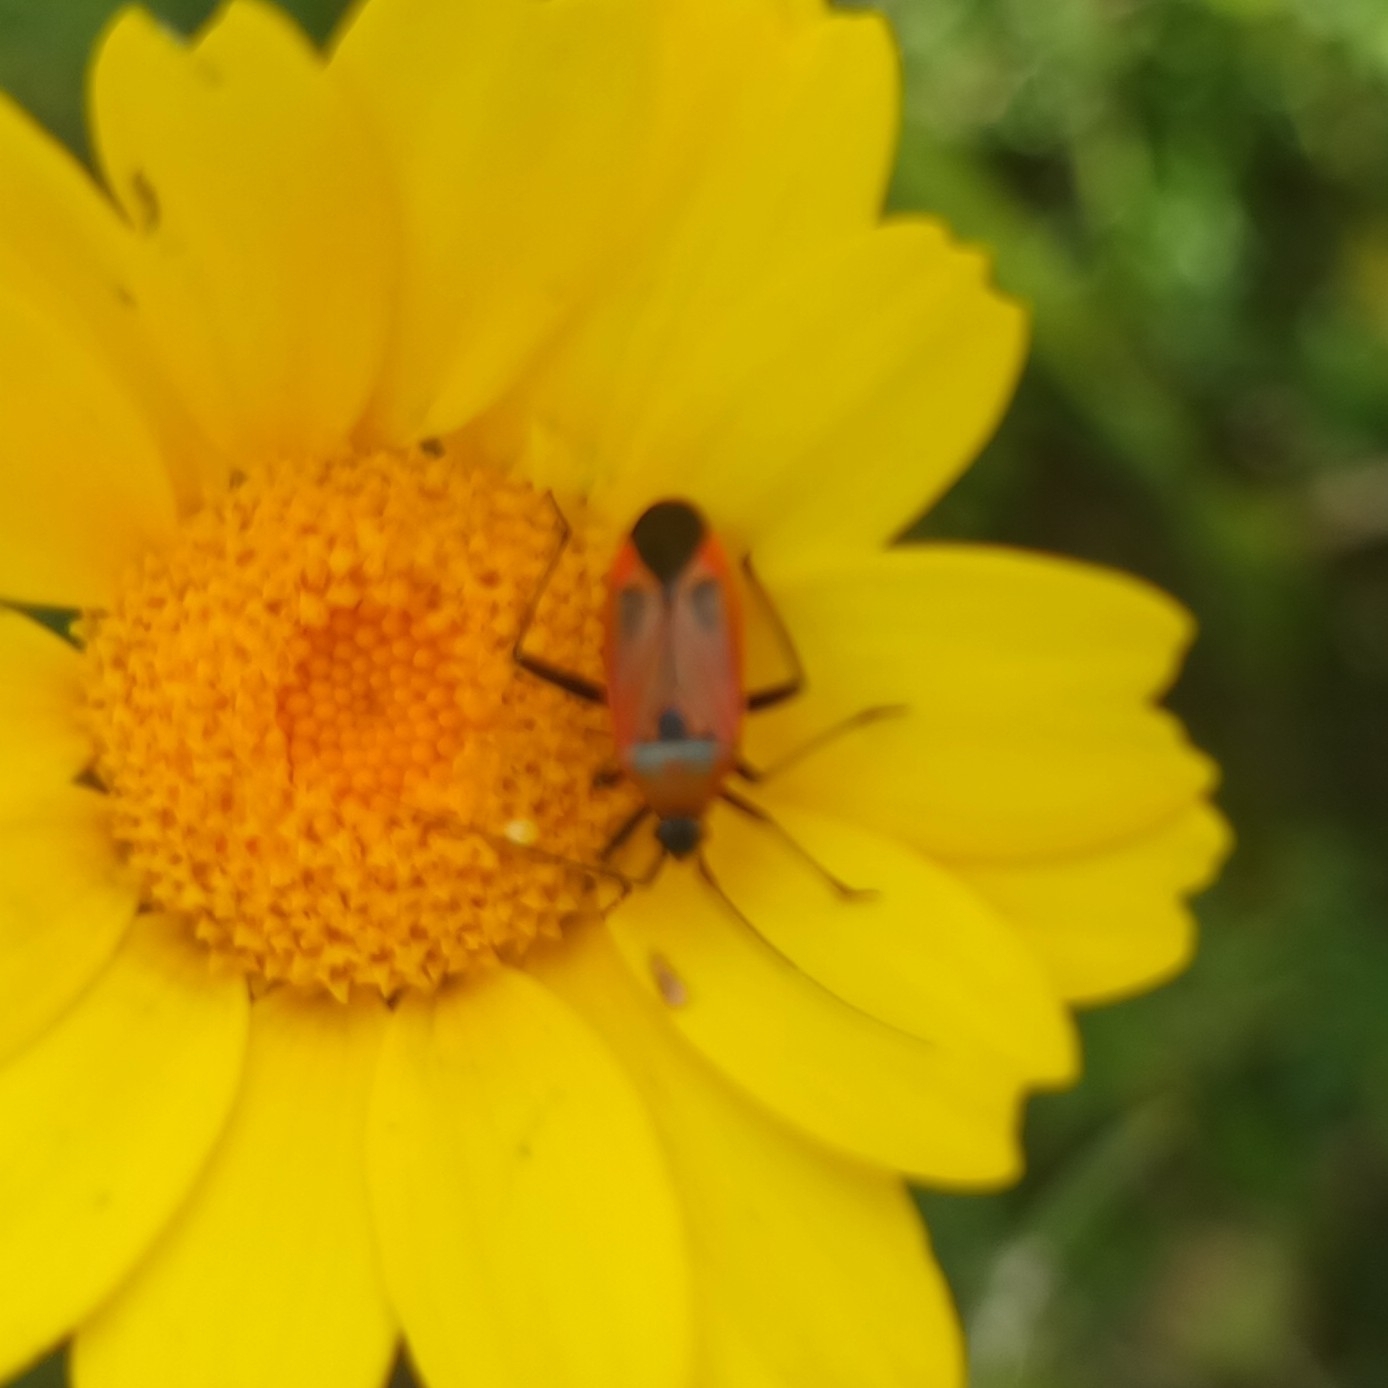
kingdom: Animalia
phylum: Arthropoda
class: Insecta
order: Hemiptera
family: Miridae
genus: Calocoris
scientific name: Calocoris nemoralis
